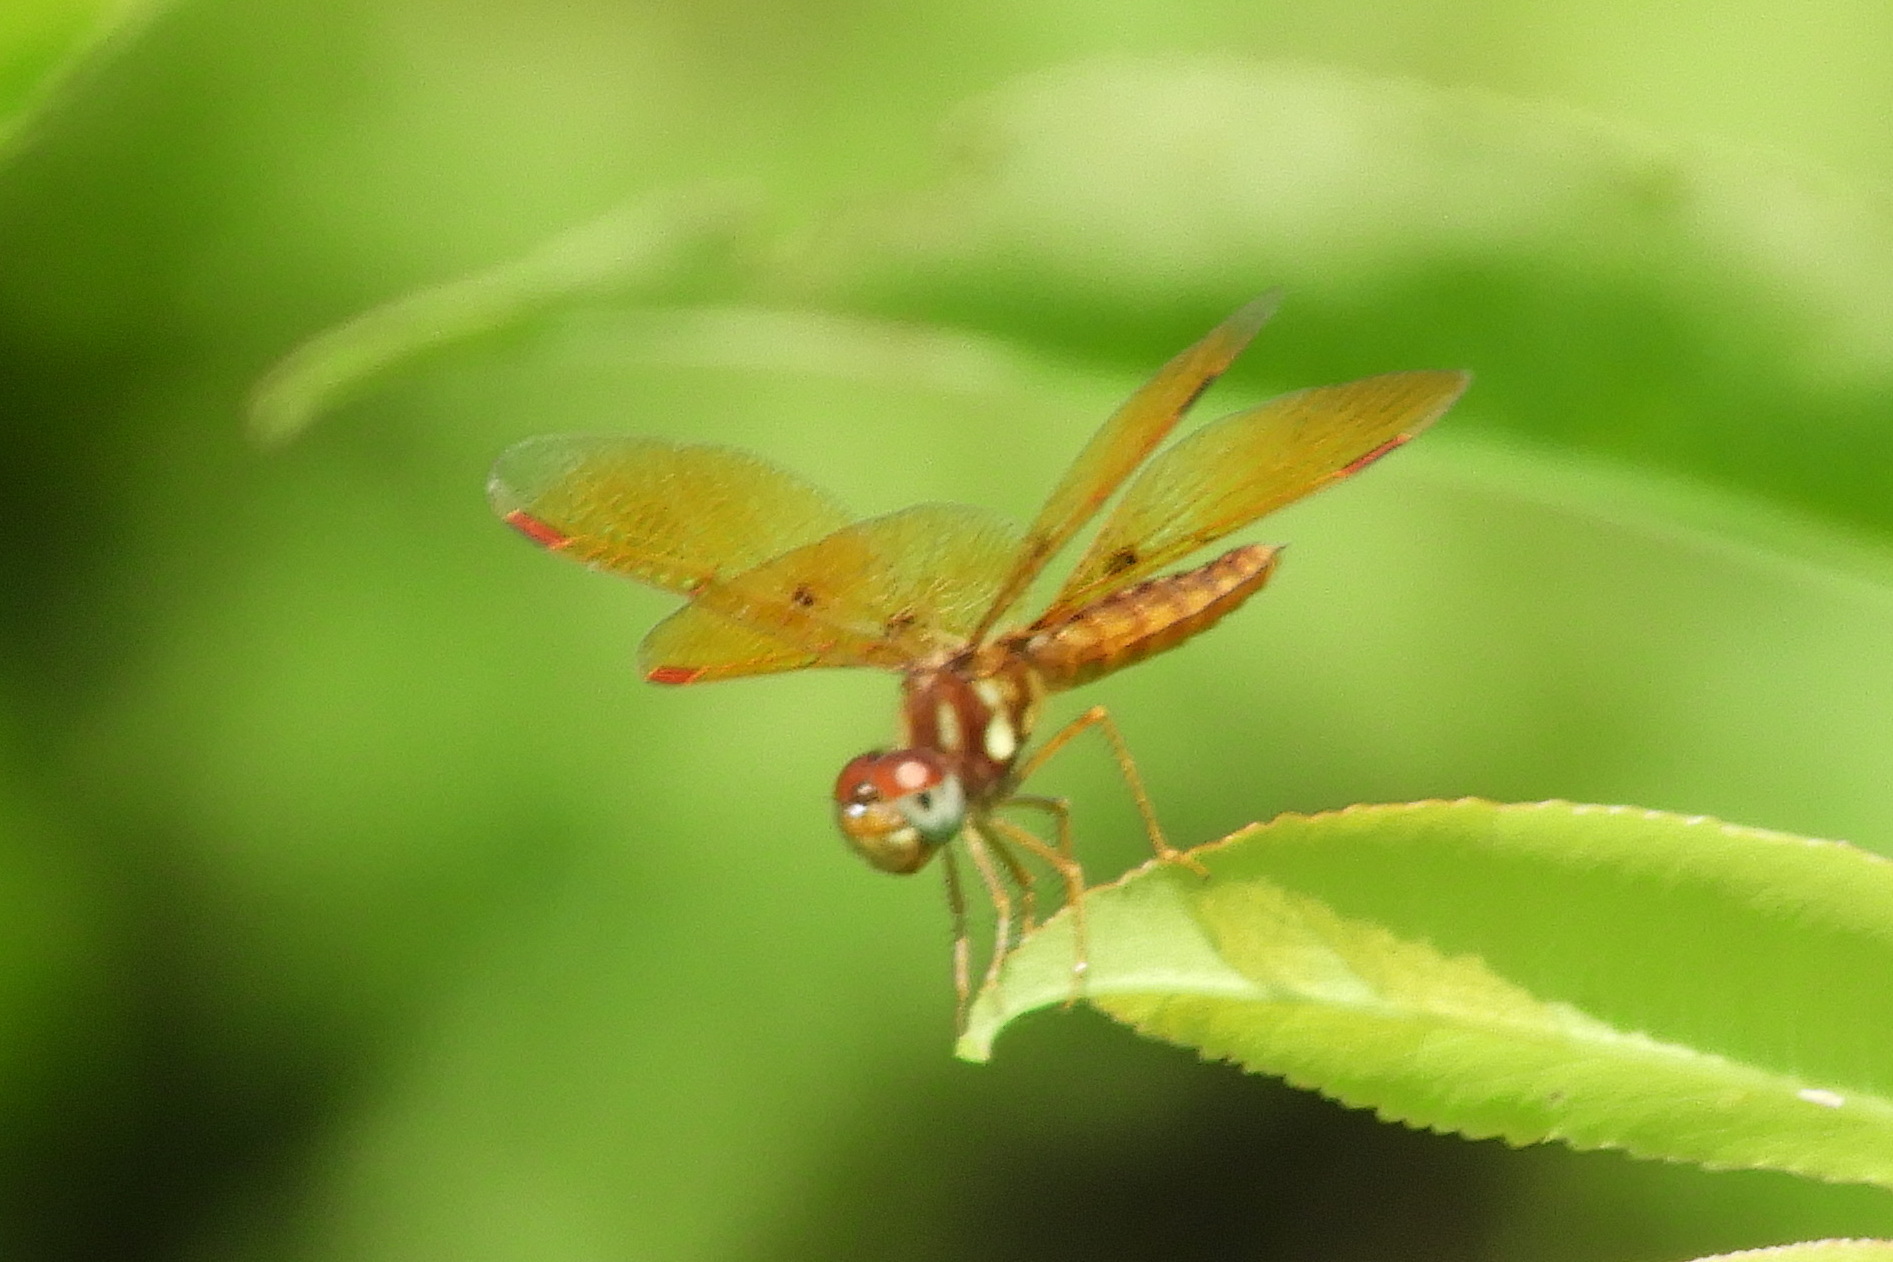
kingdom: Animalia
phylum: Arthropoda
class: Insecta
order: Odonata
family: Libellulidae
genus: Perithemis
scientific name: Perithemis tenera
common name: Eastern amberwing
